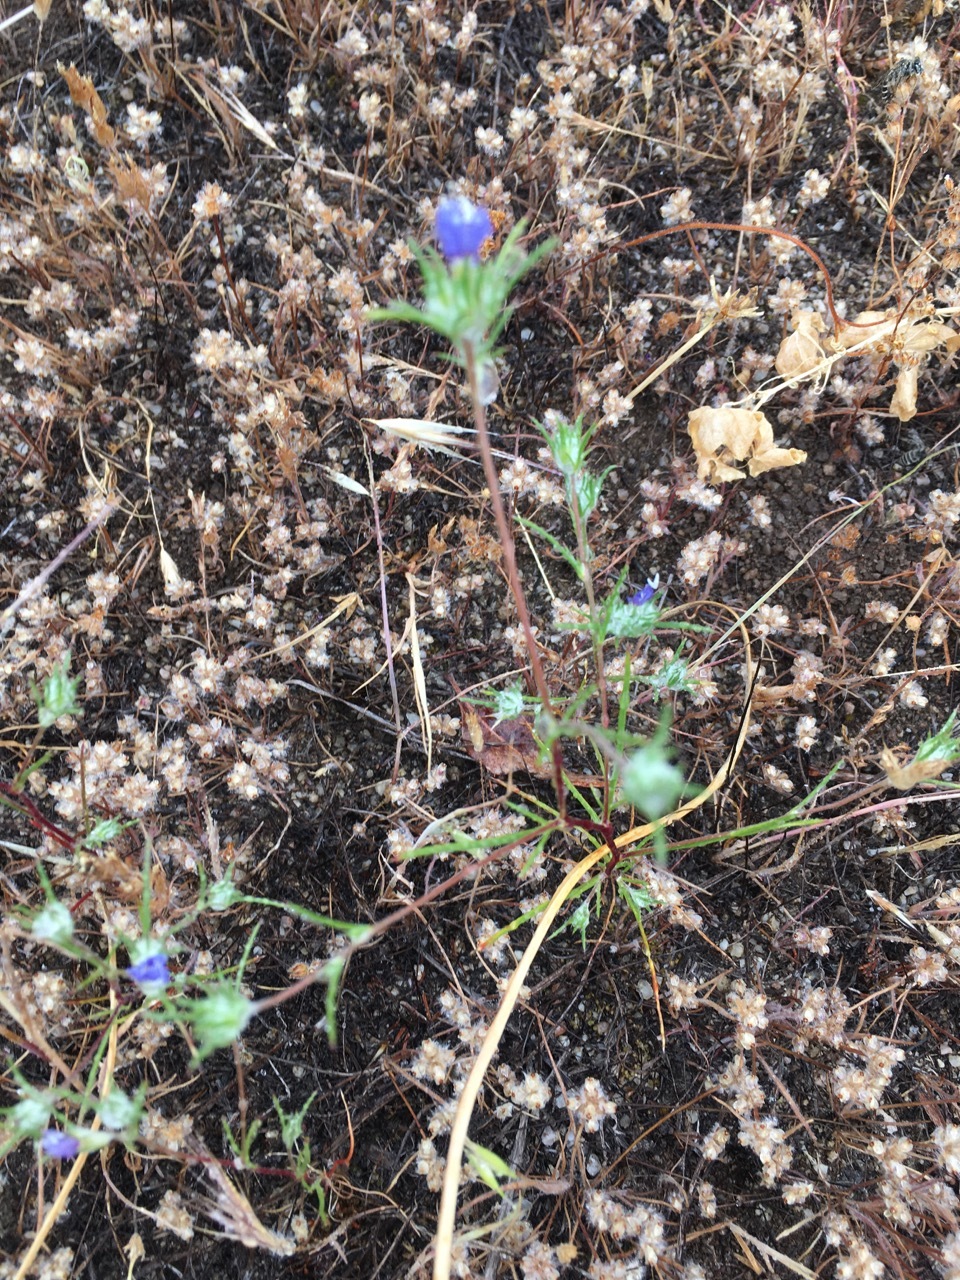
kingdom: Plantae
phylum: Tracheophyta
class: Magnoliopsida
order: Ericales
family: Polemoniaceae
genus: Eriastrum
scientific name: Eriastrum virgatum
